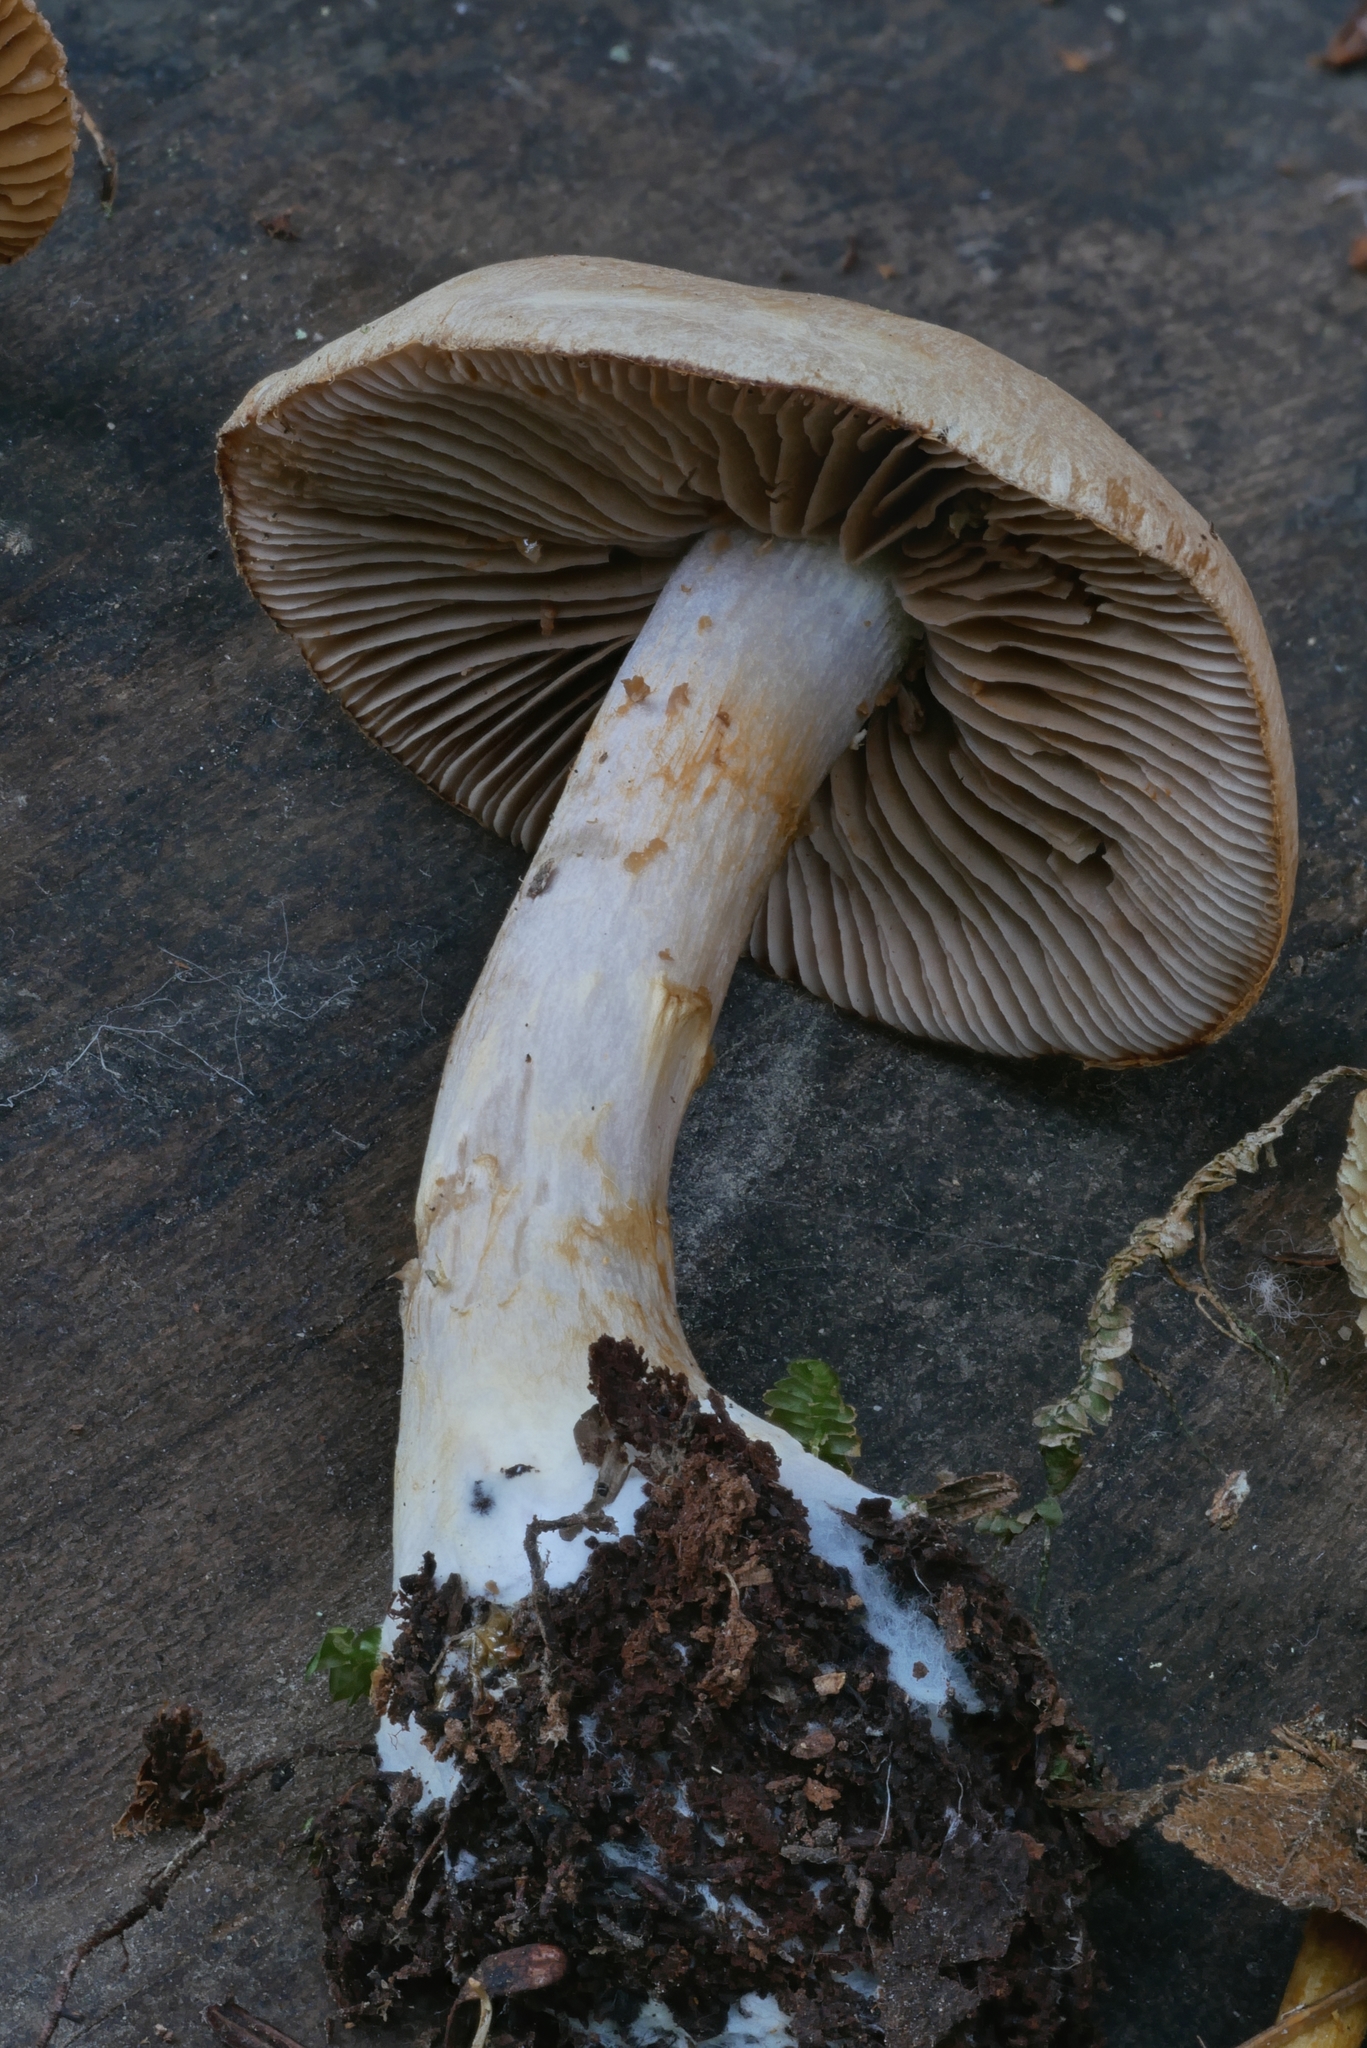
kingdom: Fungi
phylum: Basidiomycota
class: Agaricomycetes
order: Agaricales
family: Cortinariaceae
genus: Cortinarius
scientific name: Cortinarius anomalus
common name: Variable webcap
